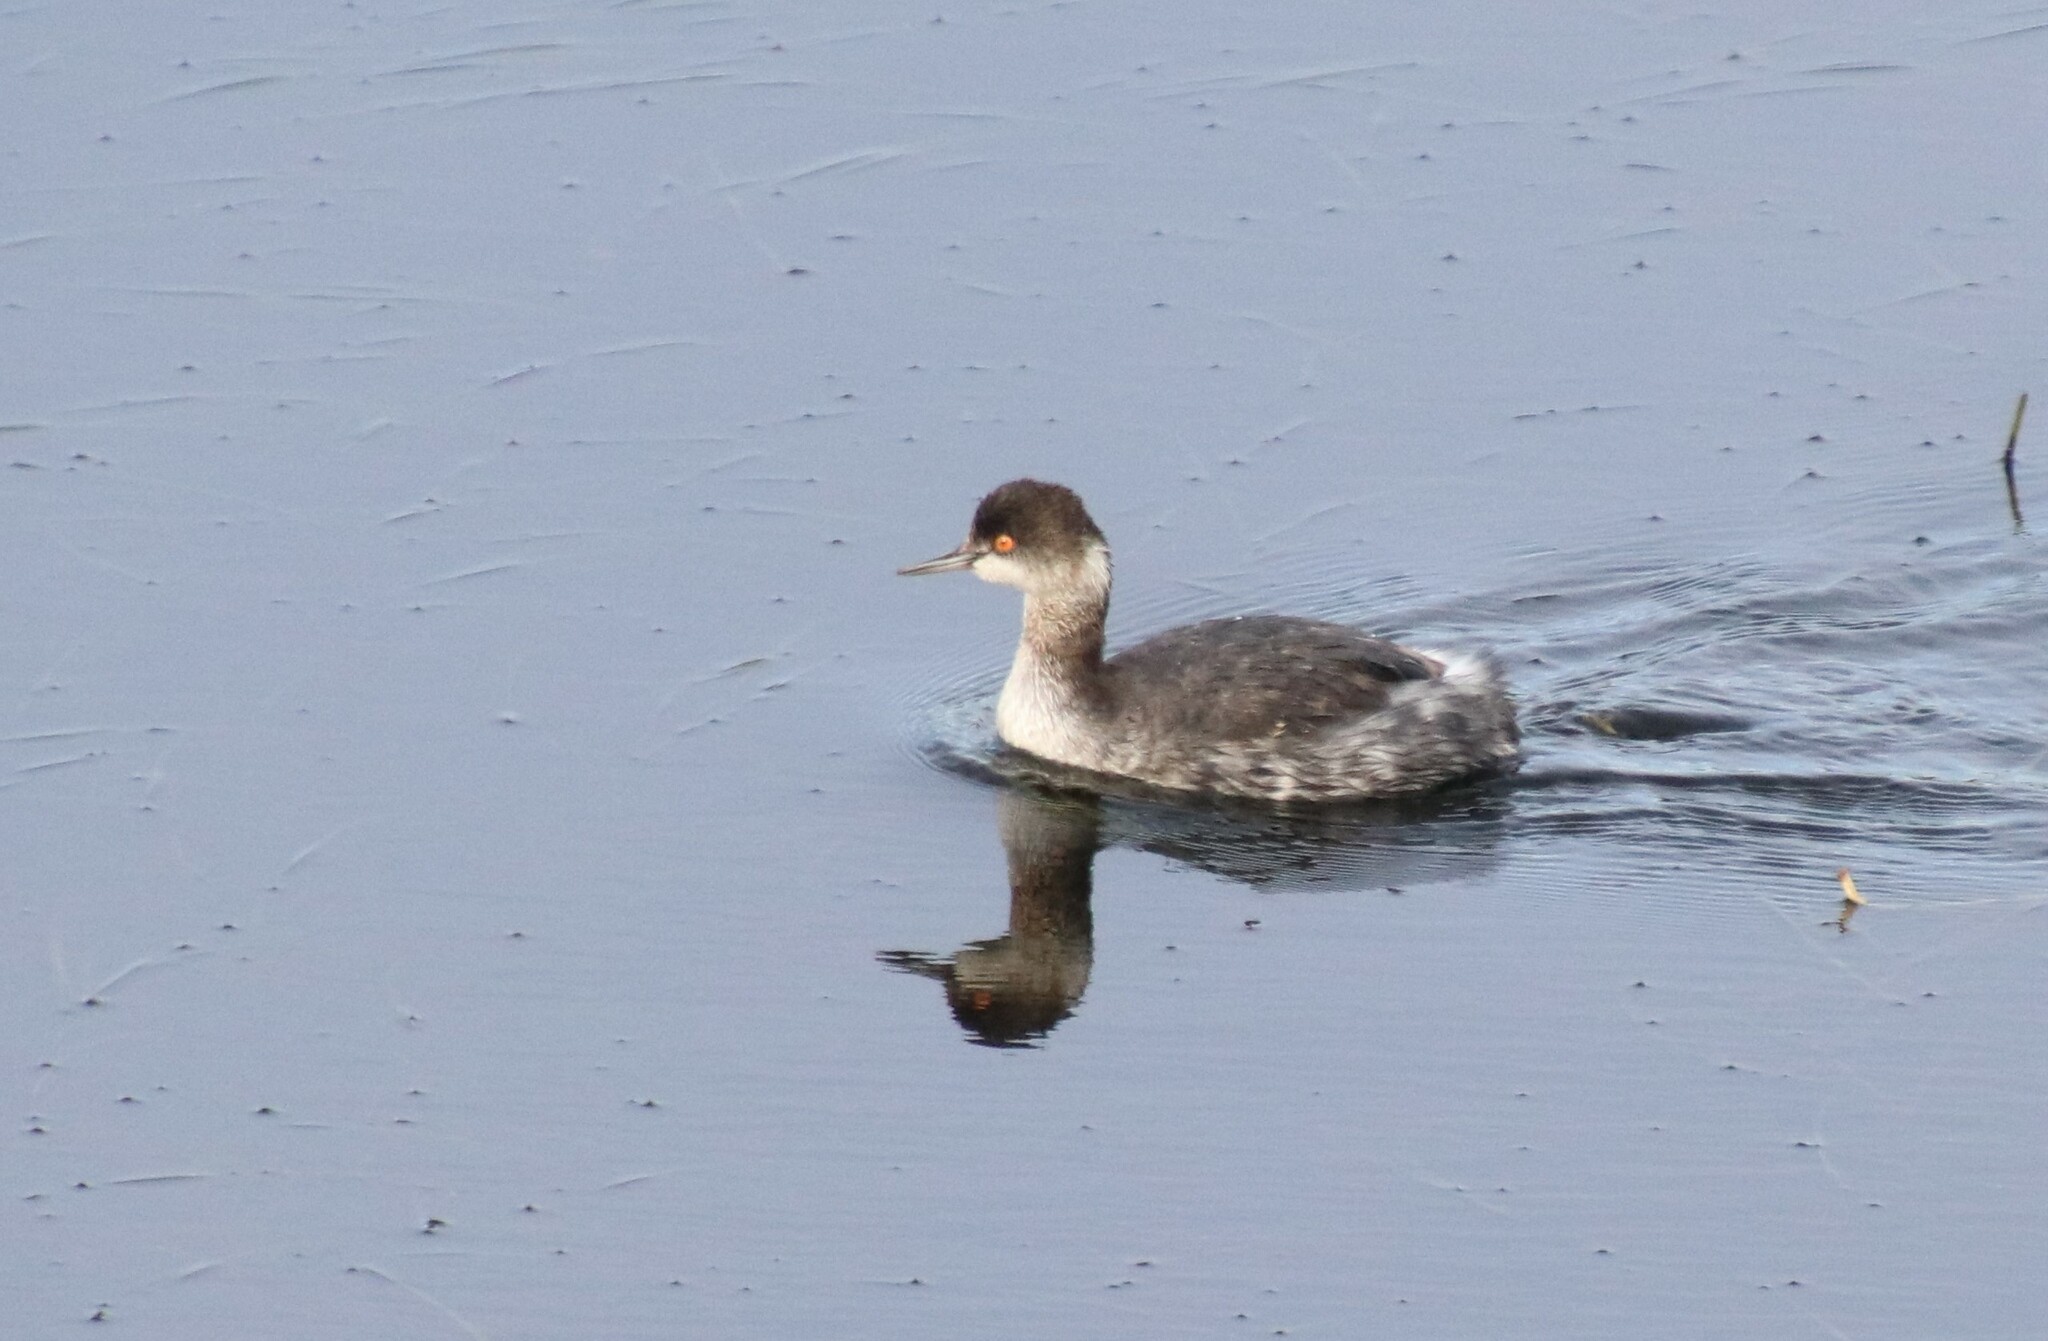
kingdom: Animalia
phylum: Chordata
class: Aves
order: Podicipediformes
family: Podicipedidae
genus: Podiceps
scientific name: Podiceps nigricollis
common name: Black-necked grebe
